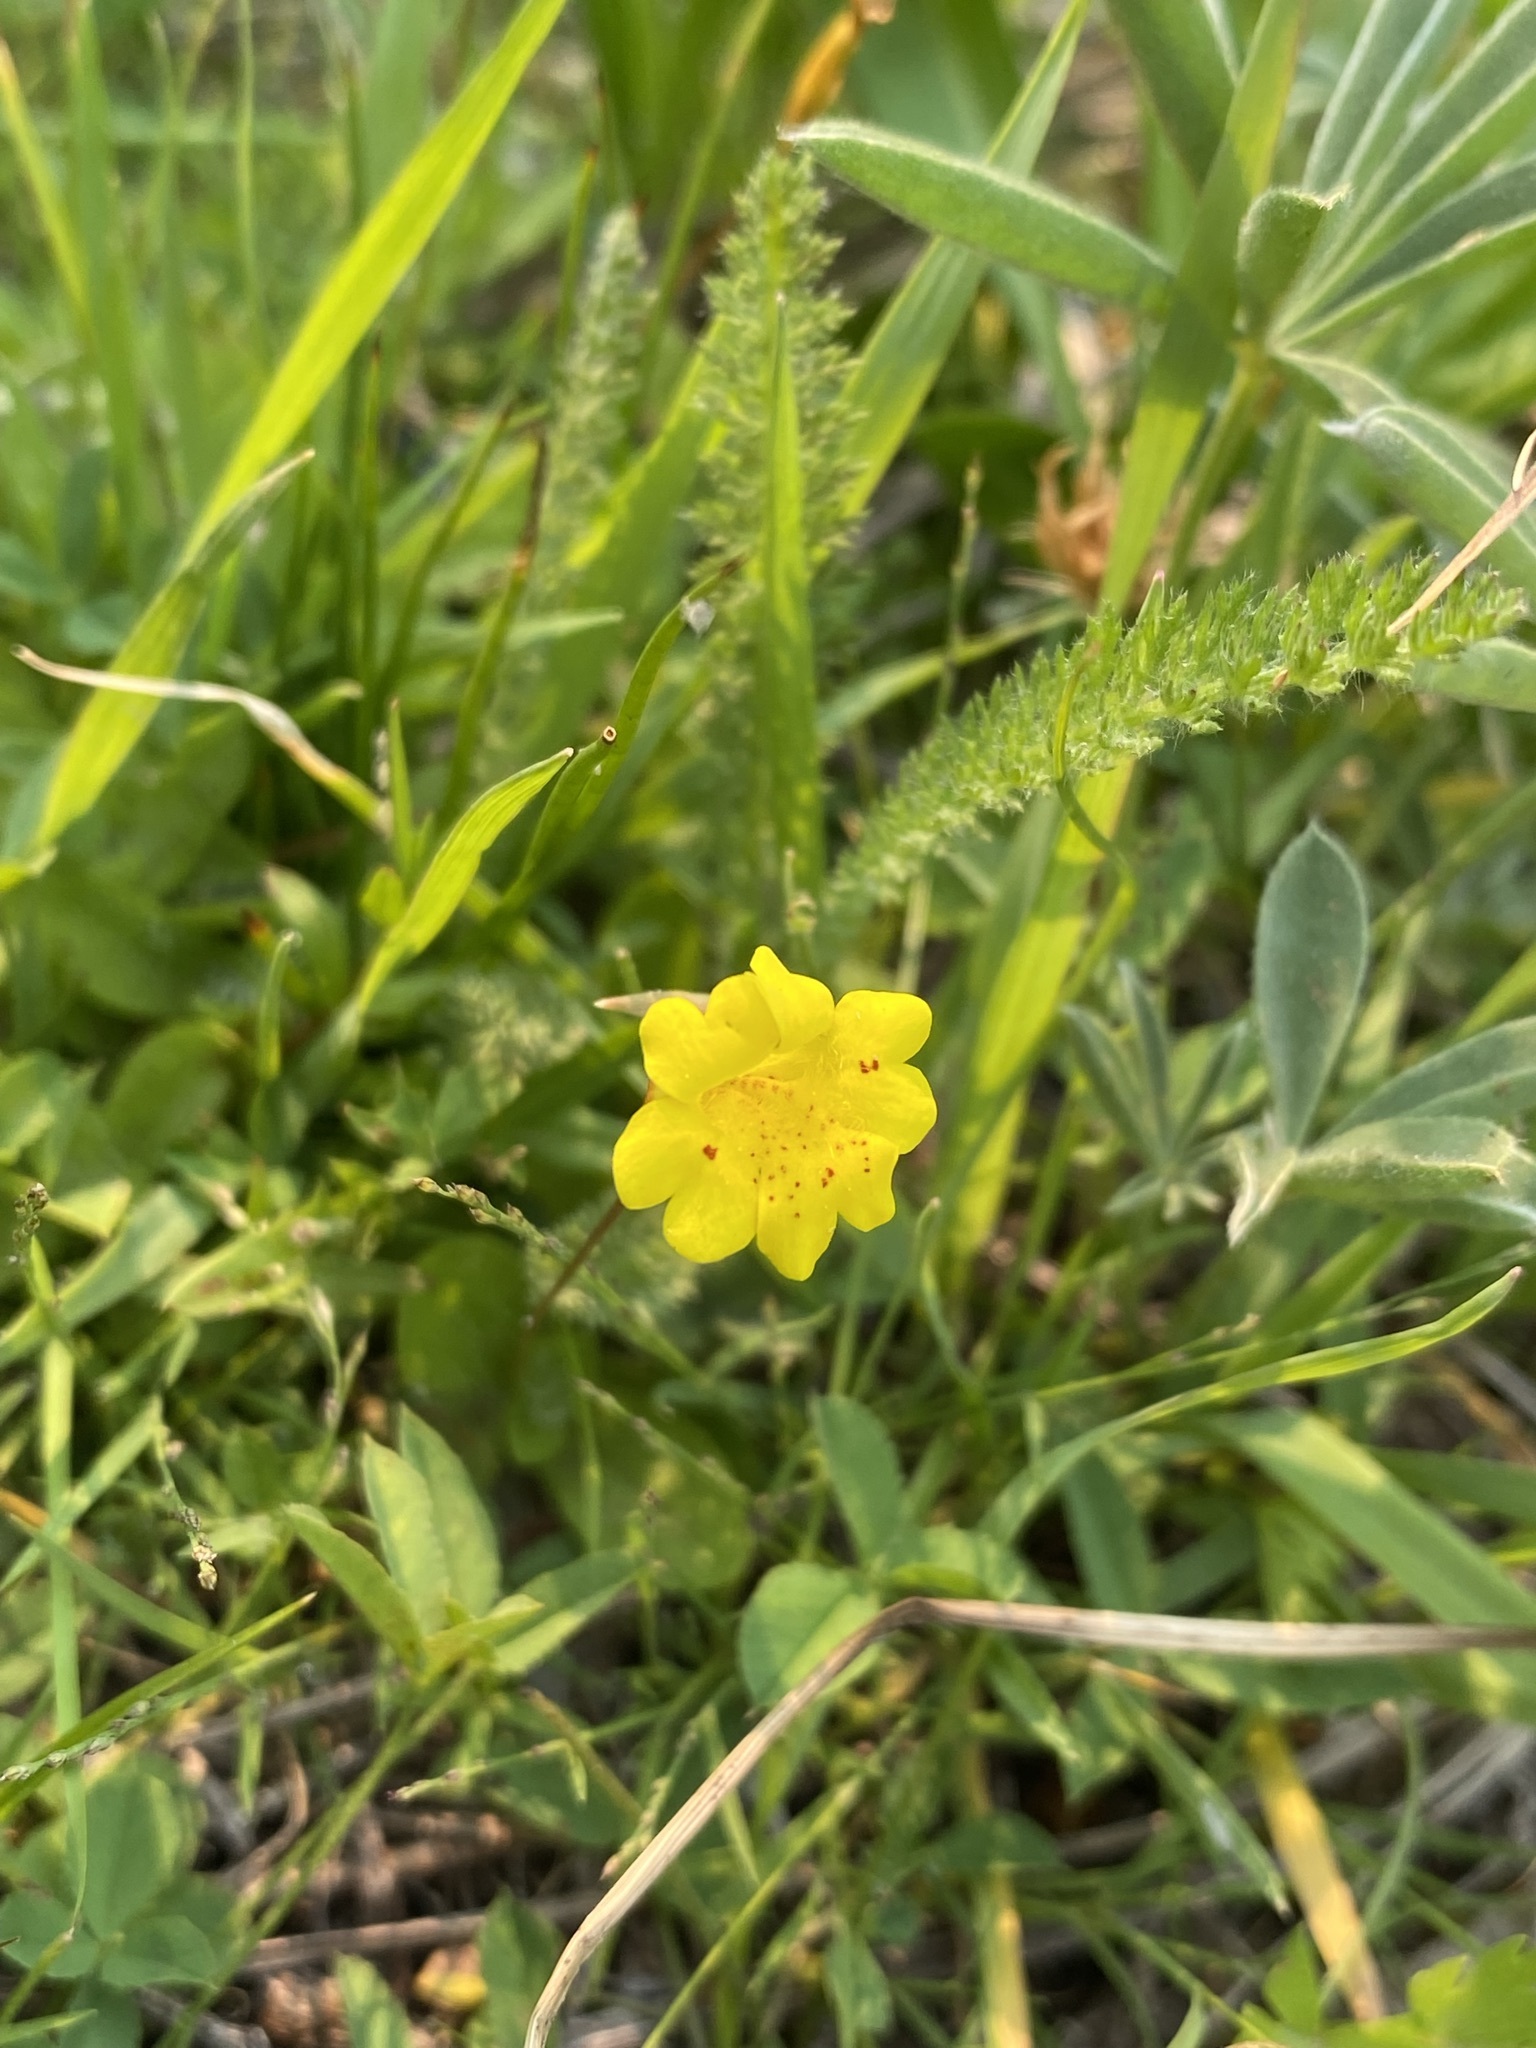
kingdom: Plantae
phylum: Tracheophyta
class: Magnoliopsida
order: Lamiales
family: Phrymaceae
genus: Erythranthe
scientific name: Erythranthe primuloides
